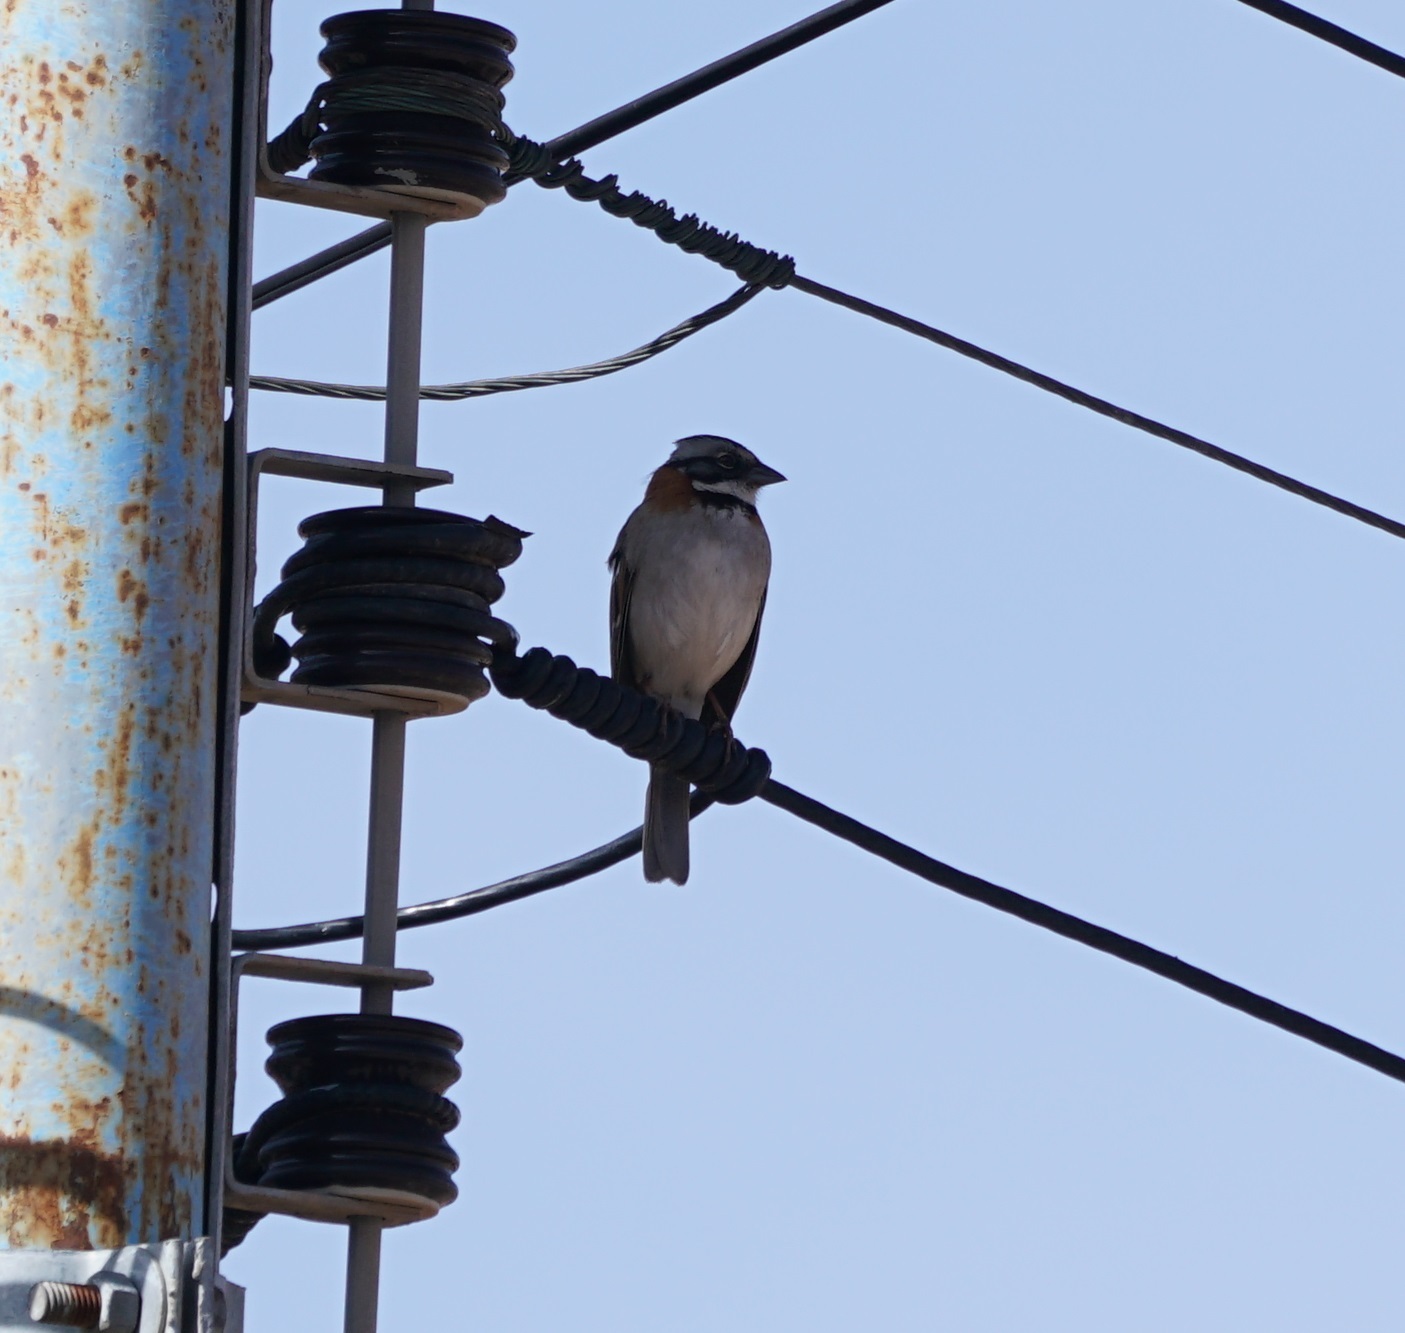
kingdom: Animalia
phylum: Chordata
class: Aves
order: Passeriformes
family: Passerellidae
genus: Zonotrichia
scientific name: Zonotrichia capensis
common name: Rufous-collared sparrow
